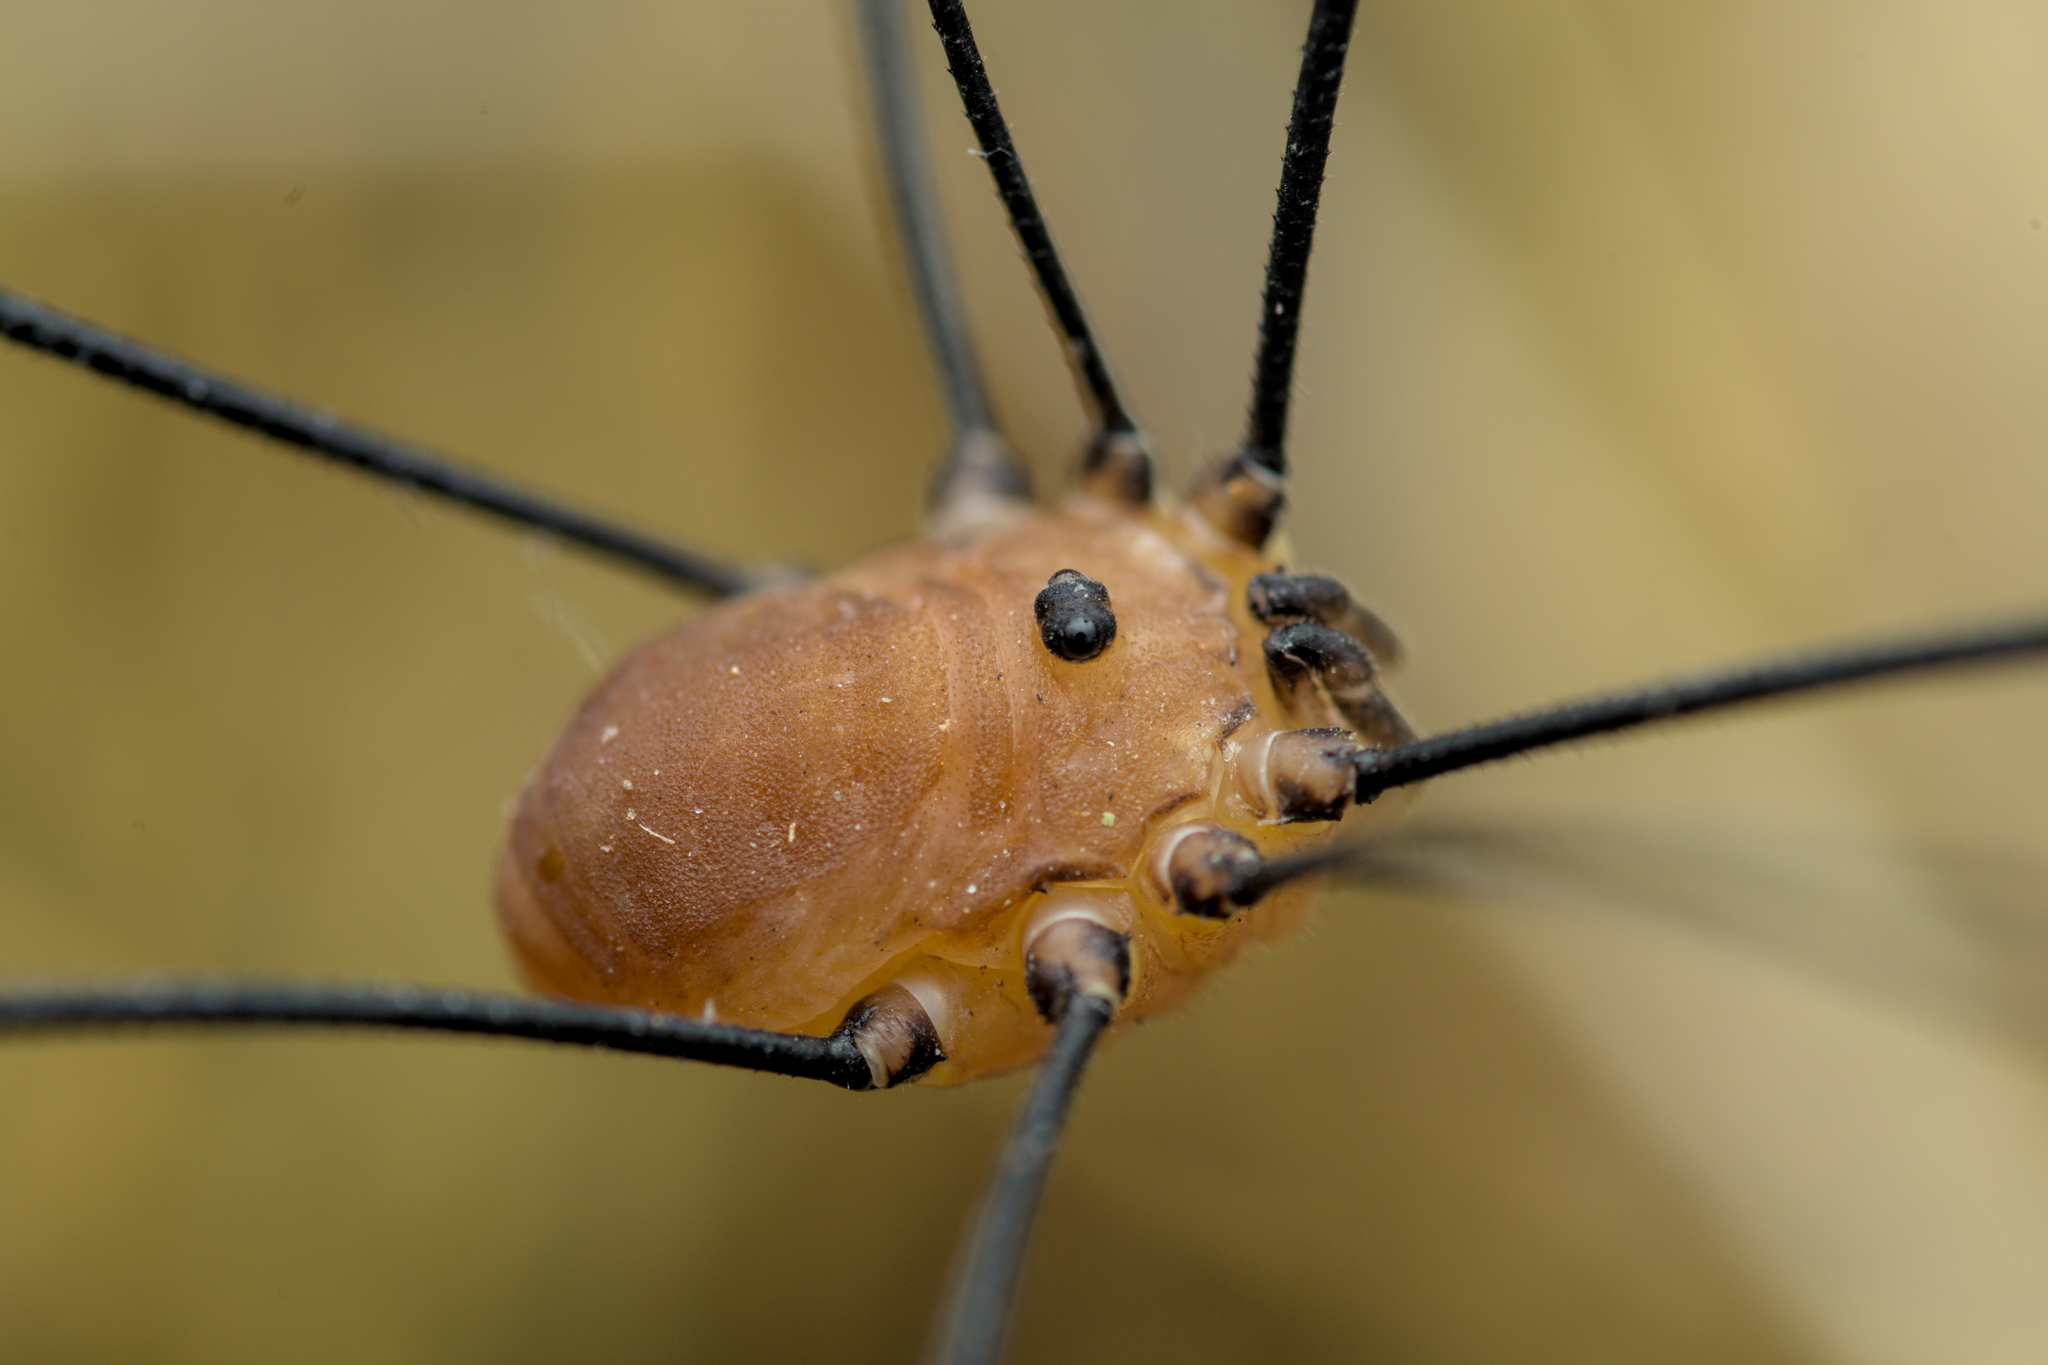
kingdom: Animalia
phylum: Arthropoda
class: Arachnida
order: Opiliones
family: Sclerosomatidae
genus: Leiobunum
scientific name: Leiobunum rotundum
